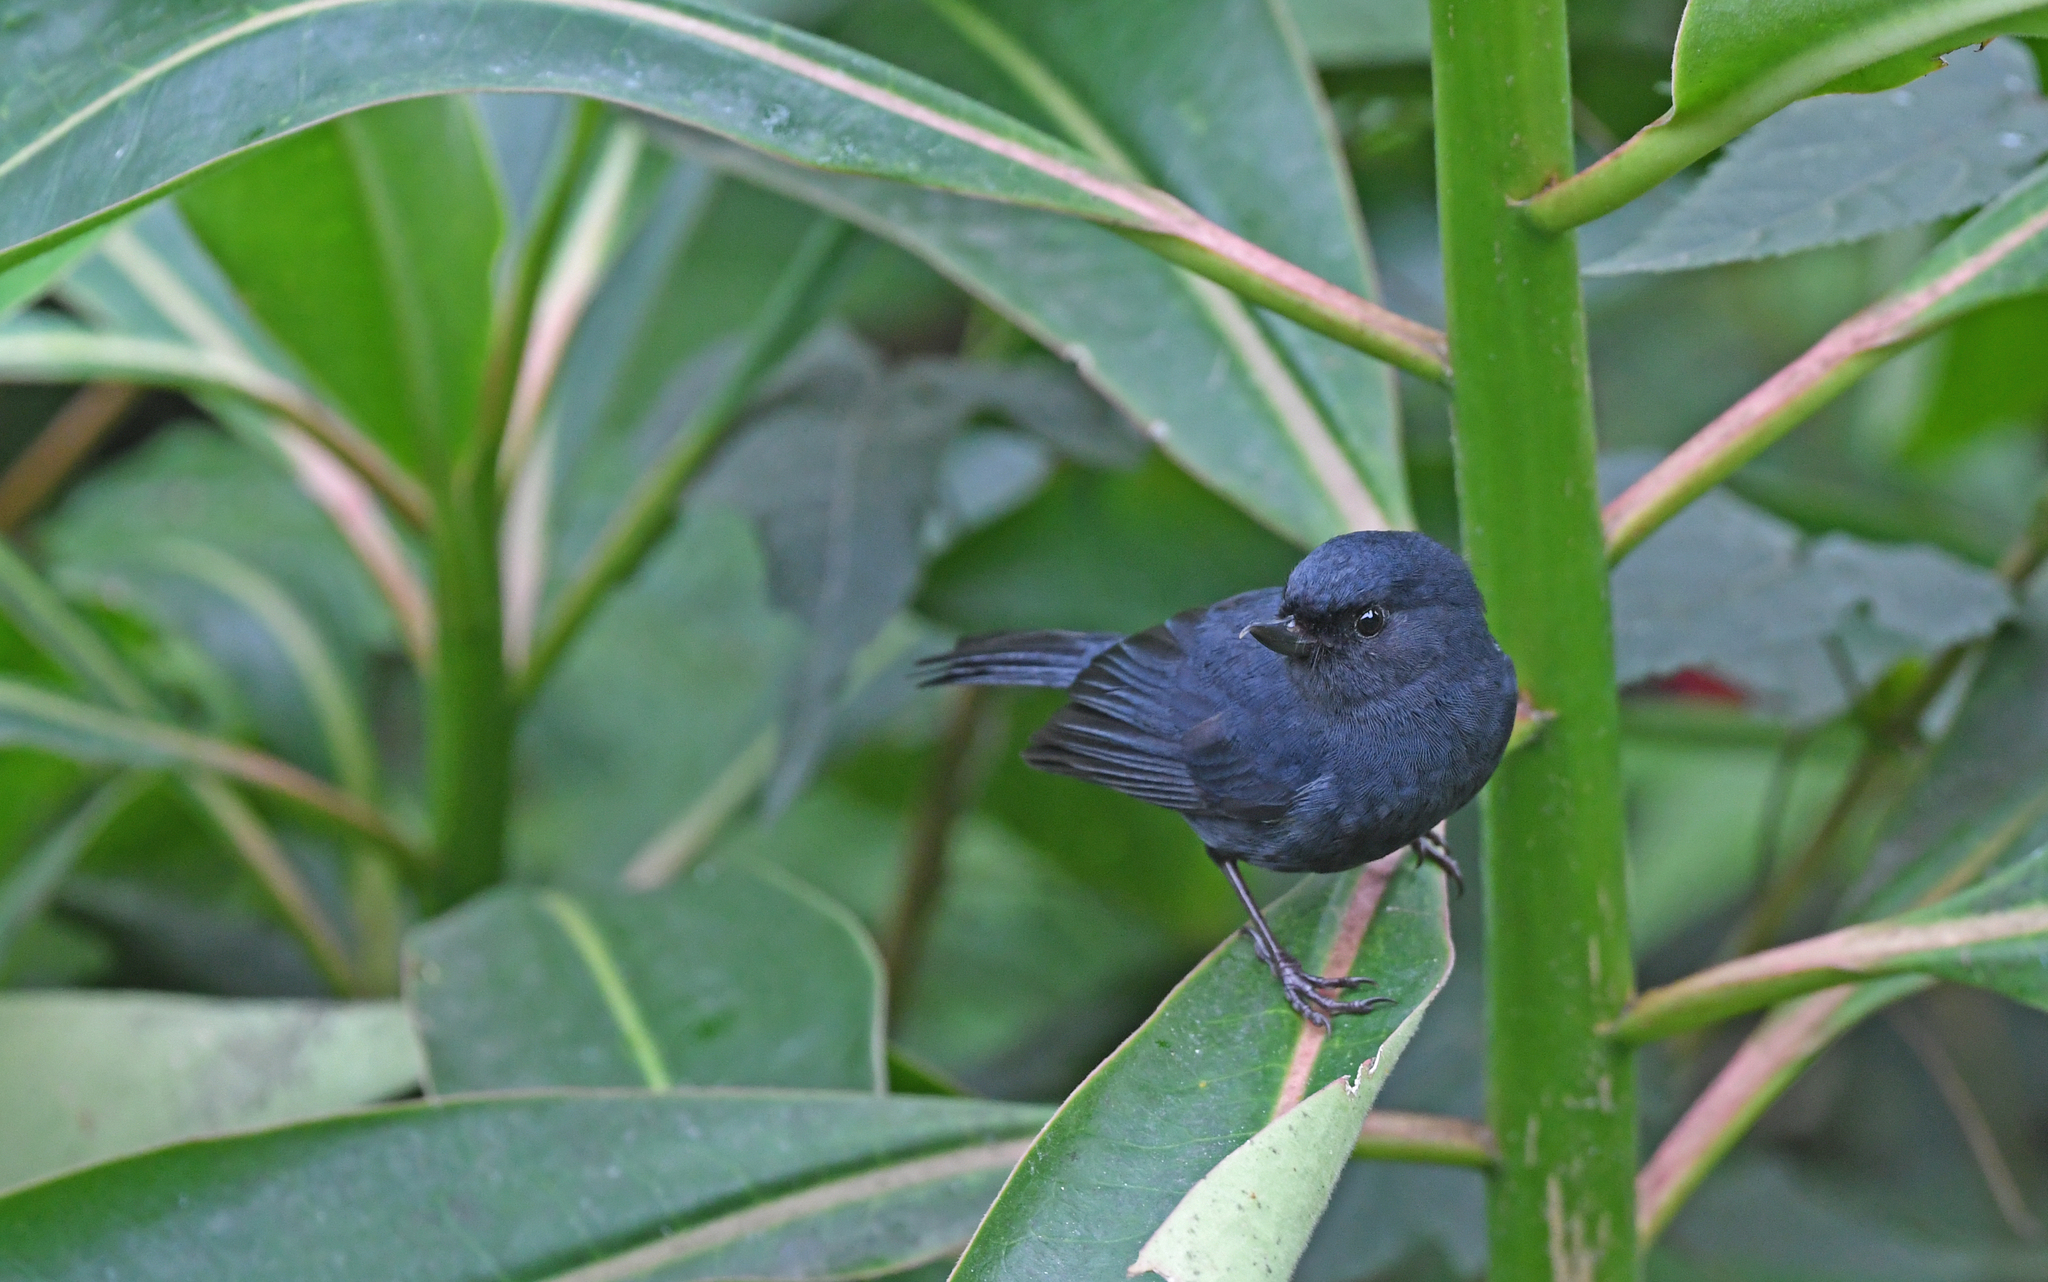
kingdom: Animalia
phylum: Chordata
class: Aves
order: Passeriformes
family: Thraupidae
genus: Diglossa
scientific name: Diglossa humeralis
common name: Black flowerpiercer
